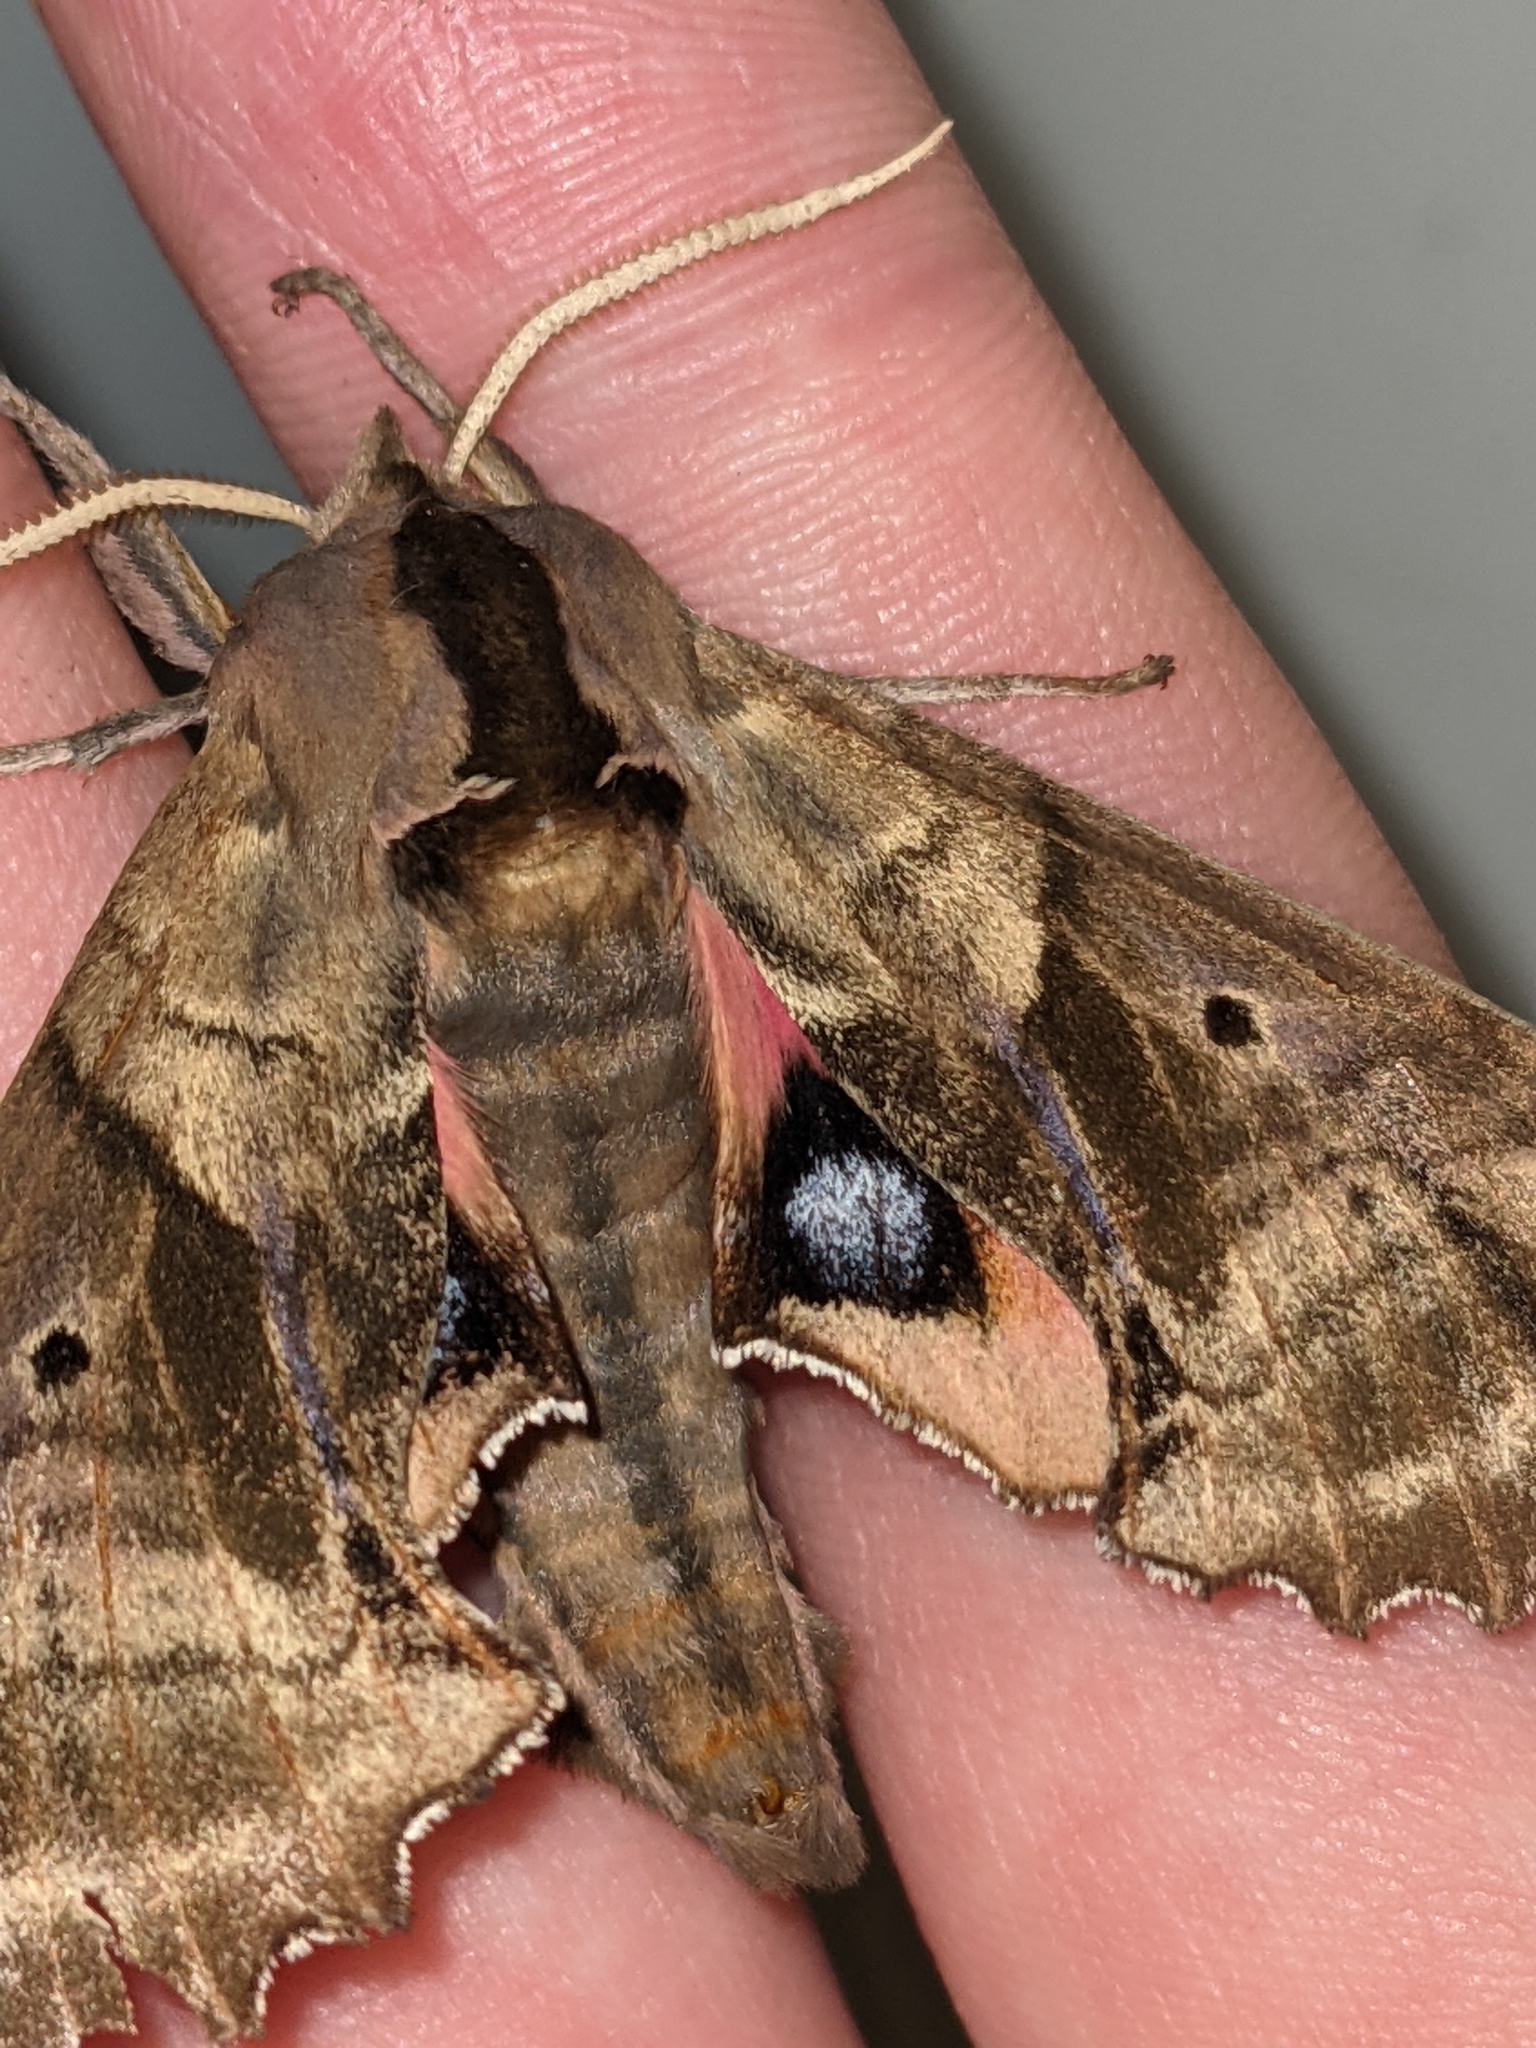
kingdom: Animalia
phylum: Arthropoda
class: Insecta
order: Lepidoptera
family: Sphingidae
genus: Paonias
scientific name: Paonias excaecata
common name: Blind-eyed sphinx
